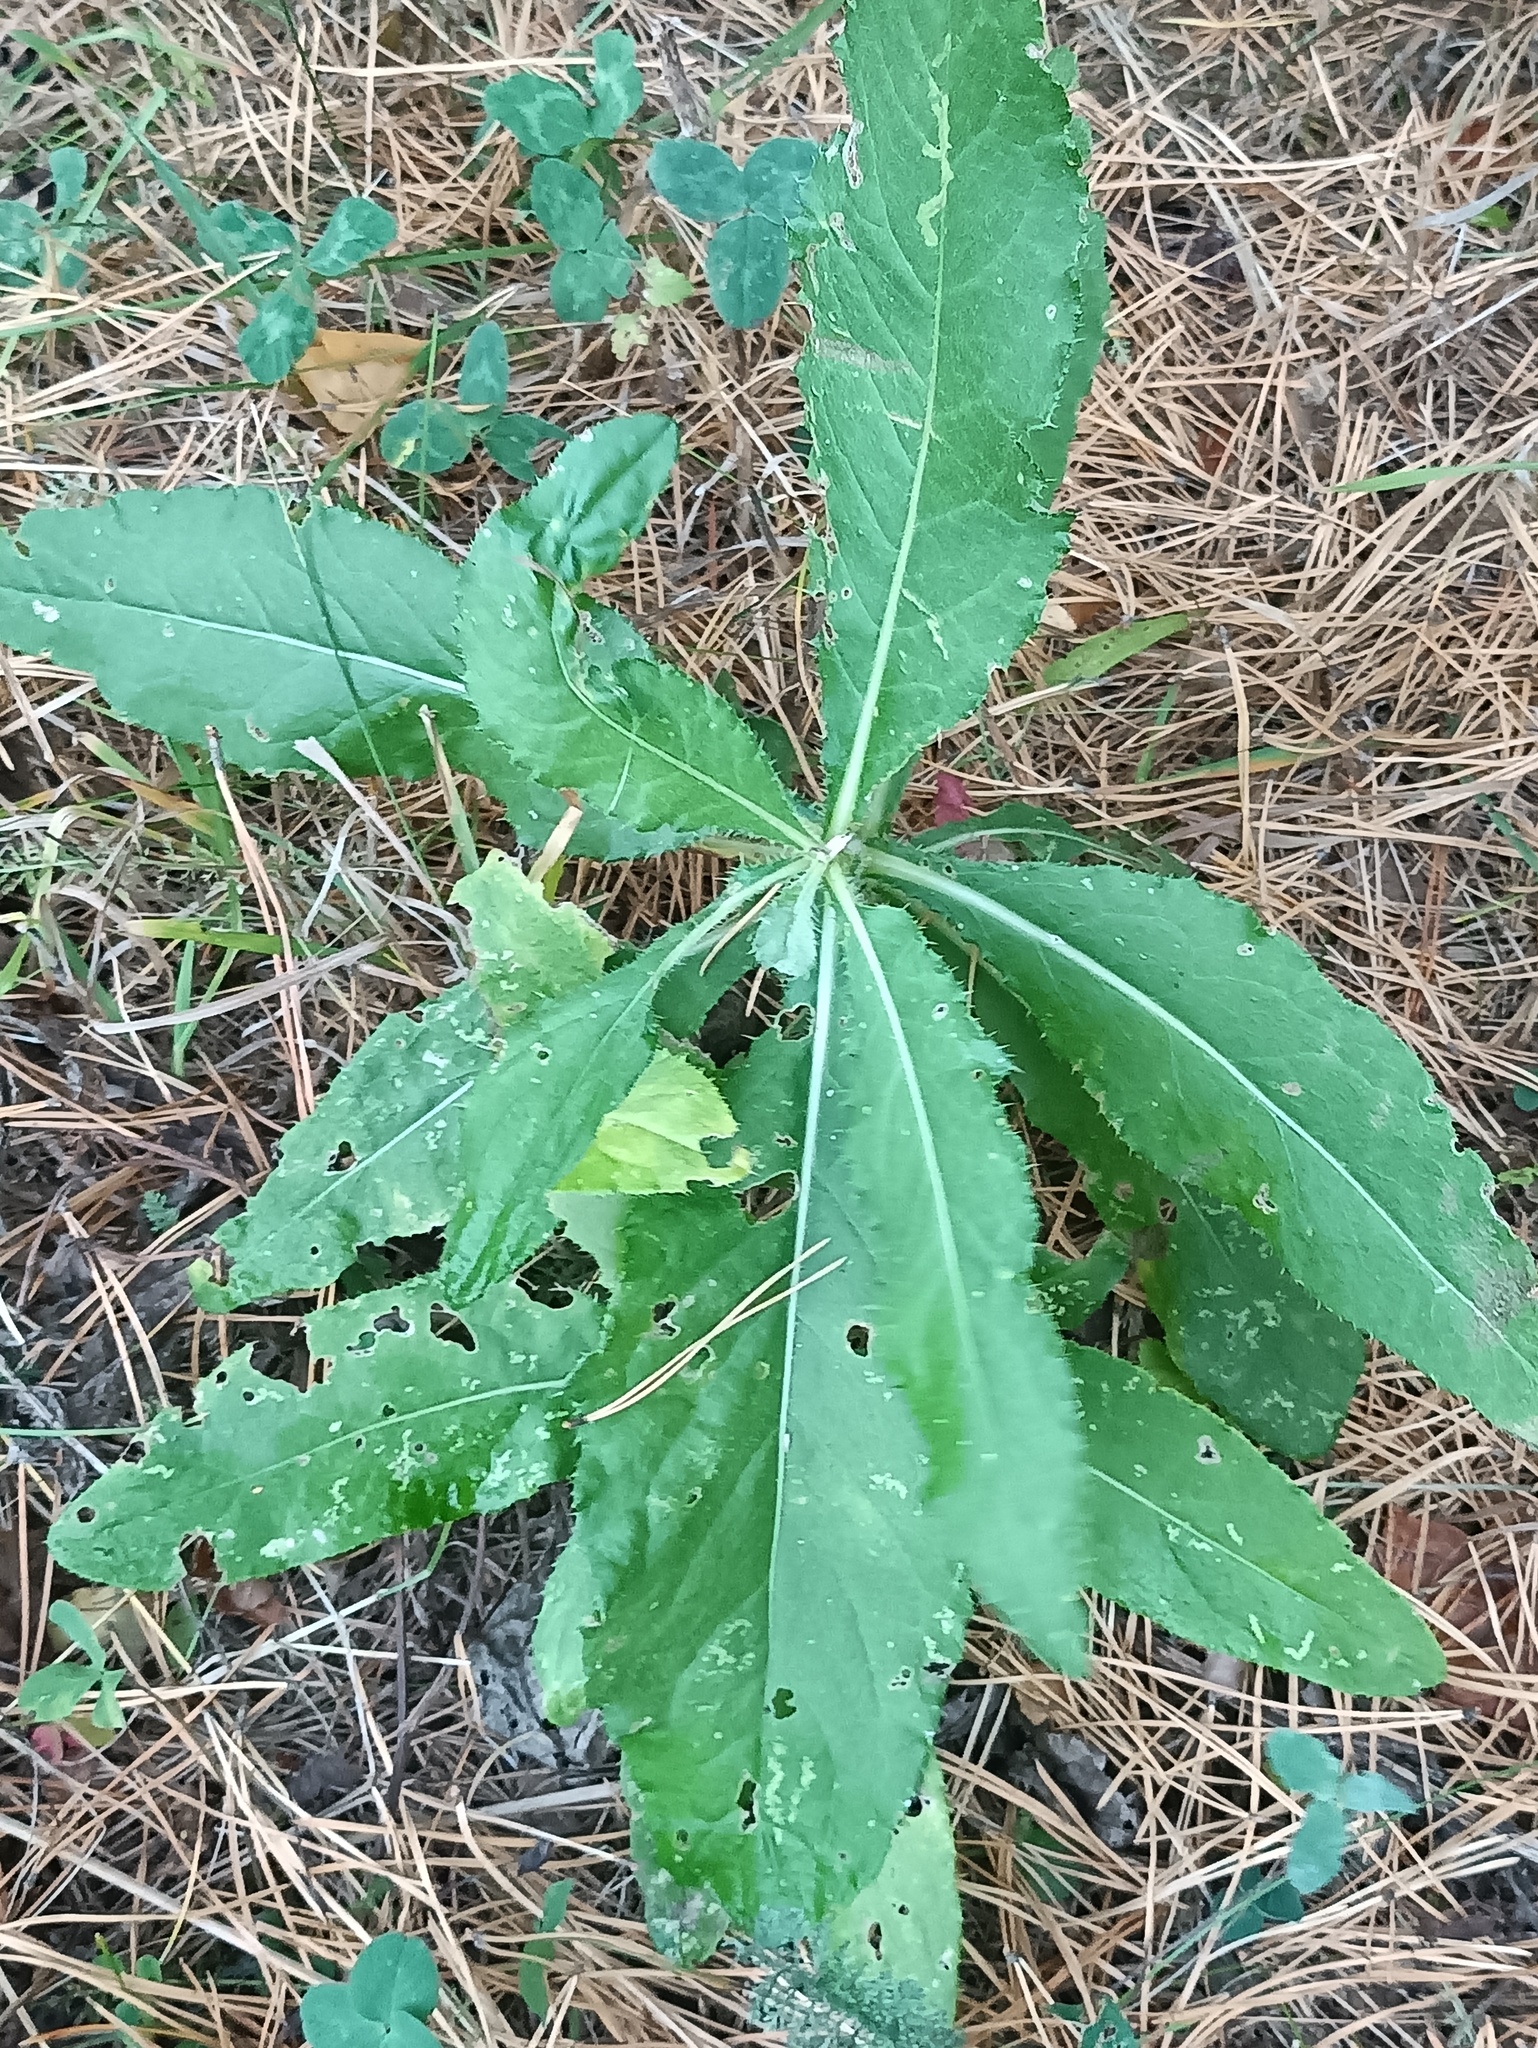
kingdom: Plantae
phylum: Tracheophyta
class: Magnoliopsida
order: Asterales
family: Asteraceae
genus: Cirsium
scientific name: Cirsium arvense
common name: Creeping thistle
